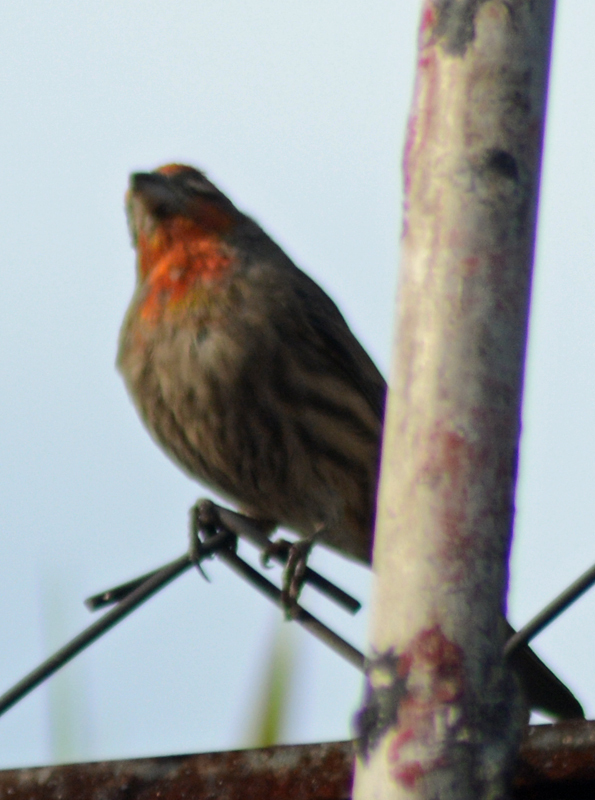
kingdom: Animalia
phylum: Chordata
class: Aves
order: Passeriformes
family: Fringillidae
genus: Haemorhous
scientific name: Haemorhous mexicanus
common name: House finch
